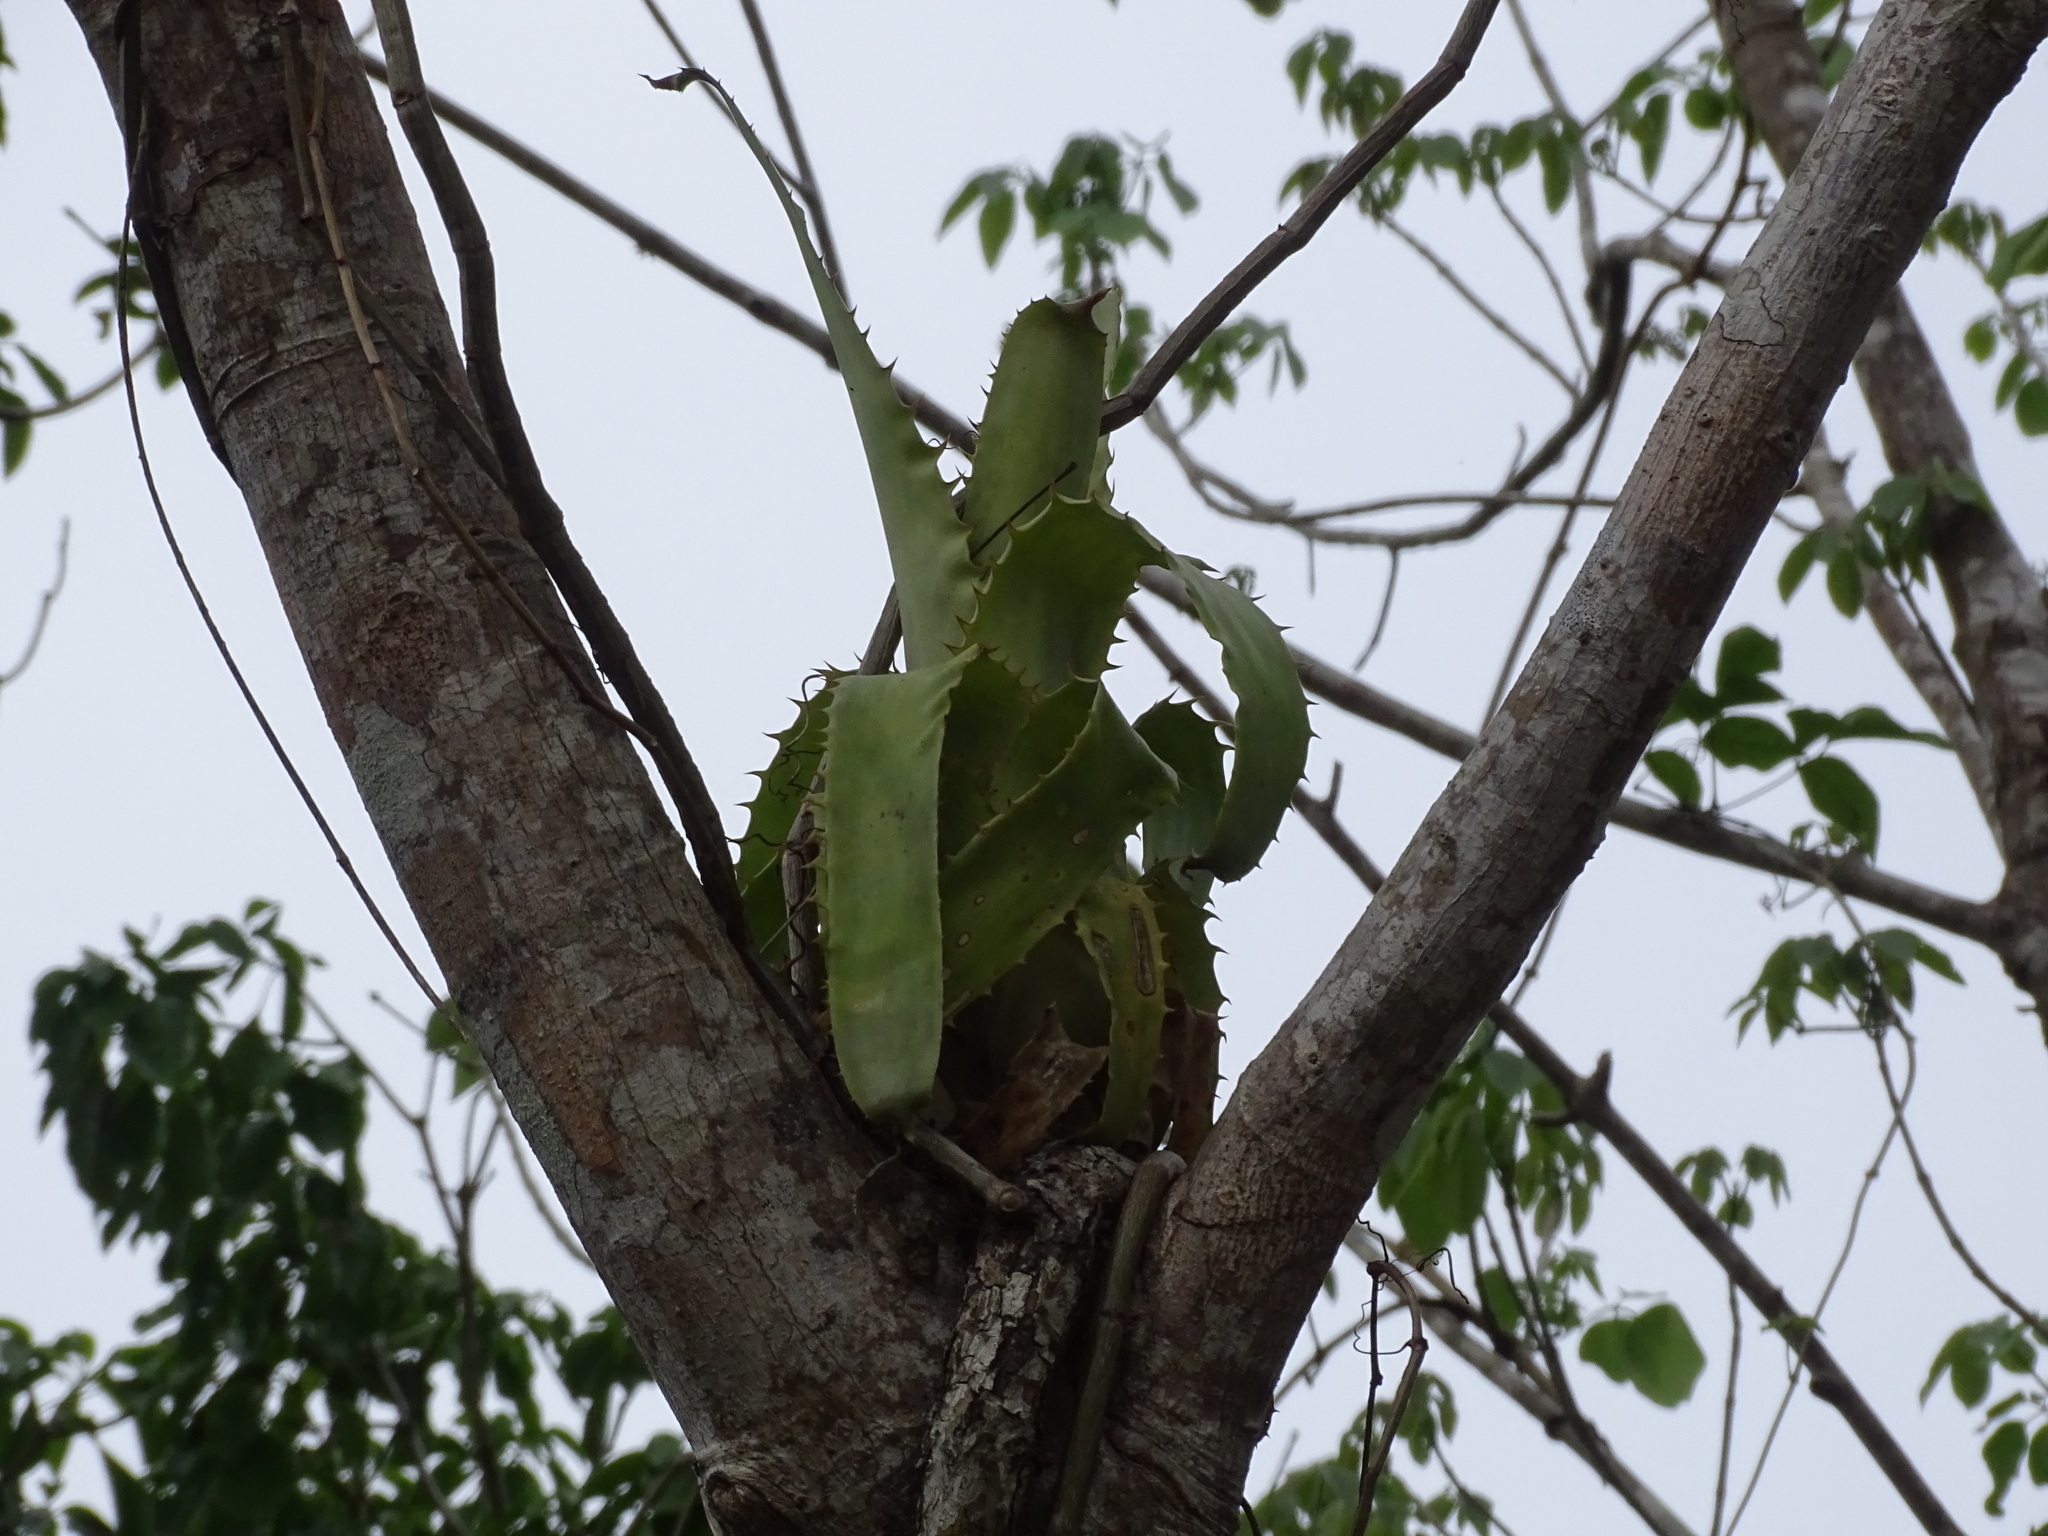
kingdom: Plantae
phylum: Tracheophyta
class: Liliopsida
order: Poales
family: Bromeliaceae
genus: Aechmea
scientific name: Aechmea bracteata
